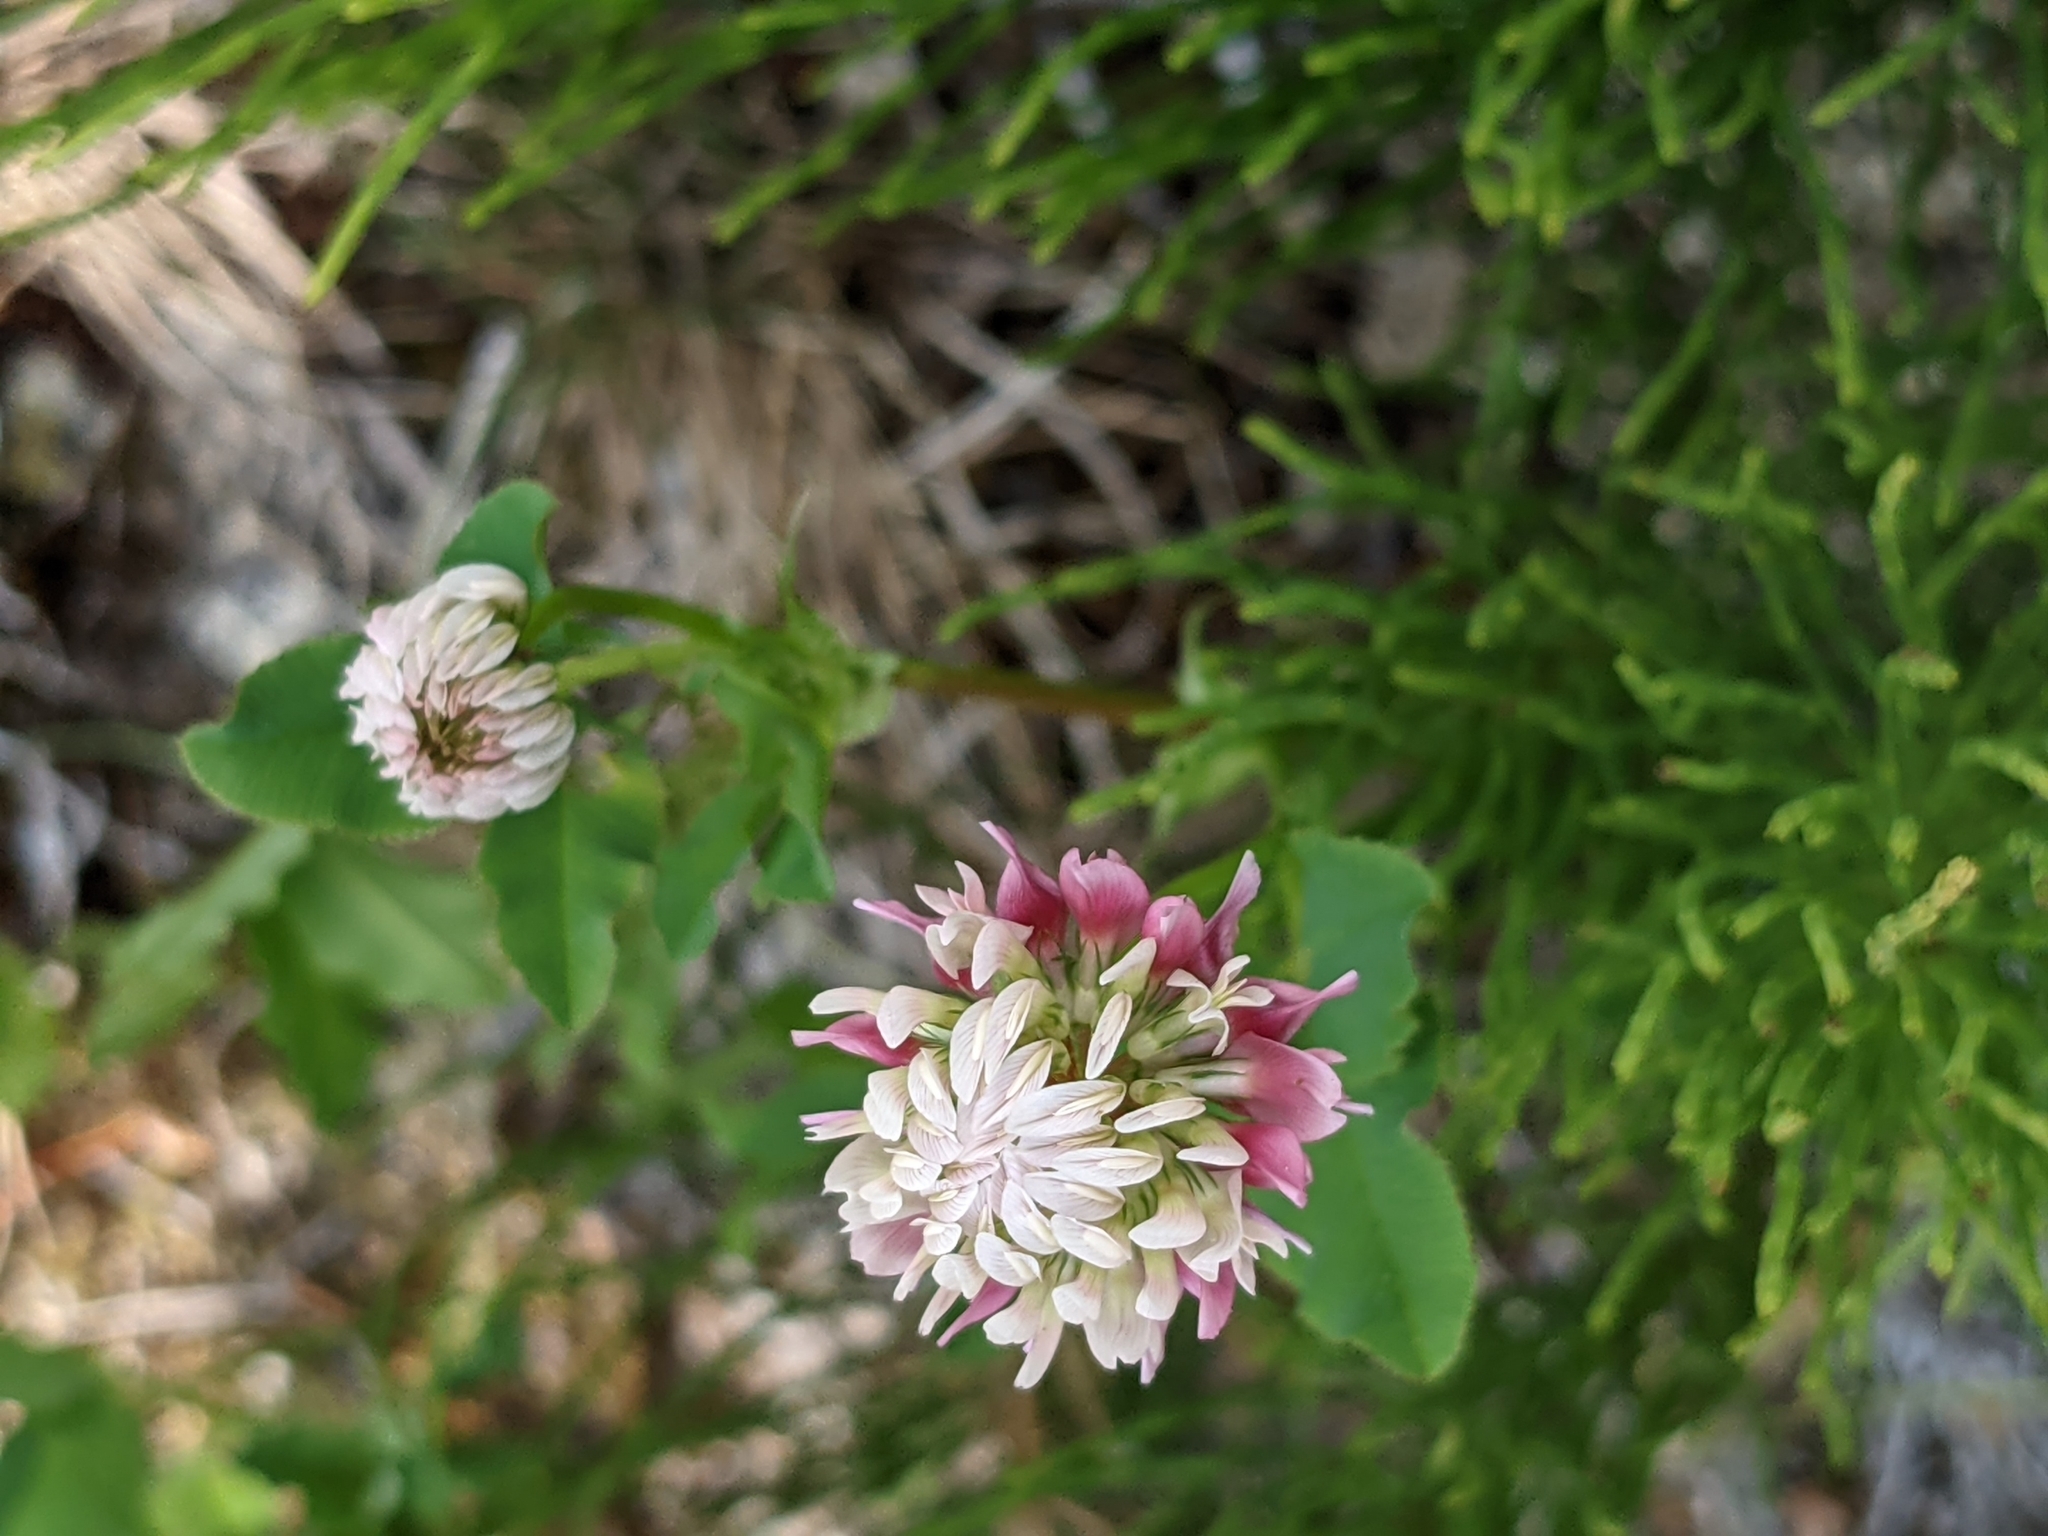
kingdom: Plantae
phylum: Tracheophyta
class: Magnoliopsida
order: Fabales
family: Fabaceae
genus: Trifolium
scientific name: Trifolium hybridum
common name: Alsike clover
